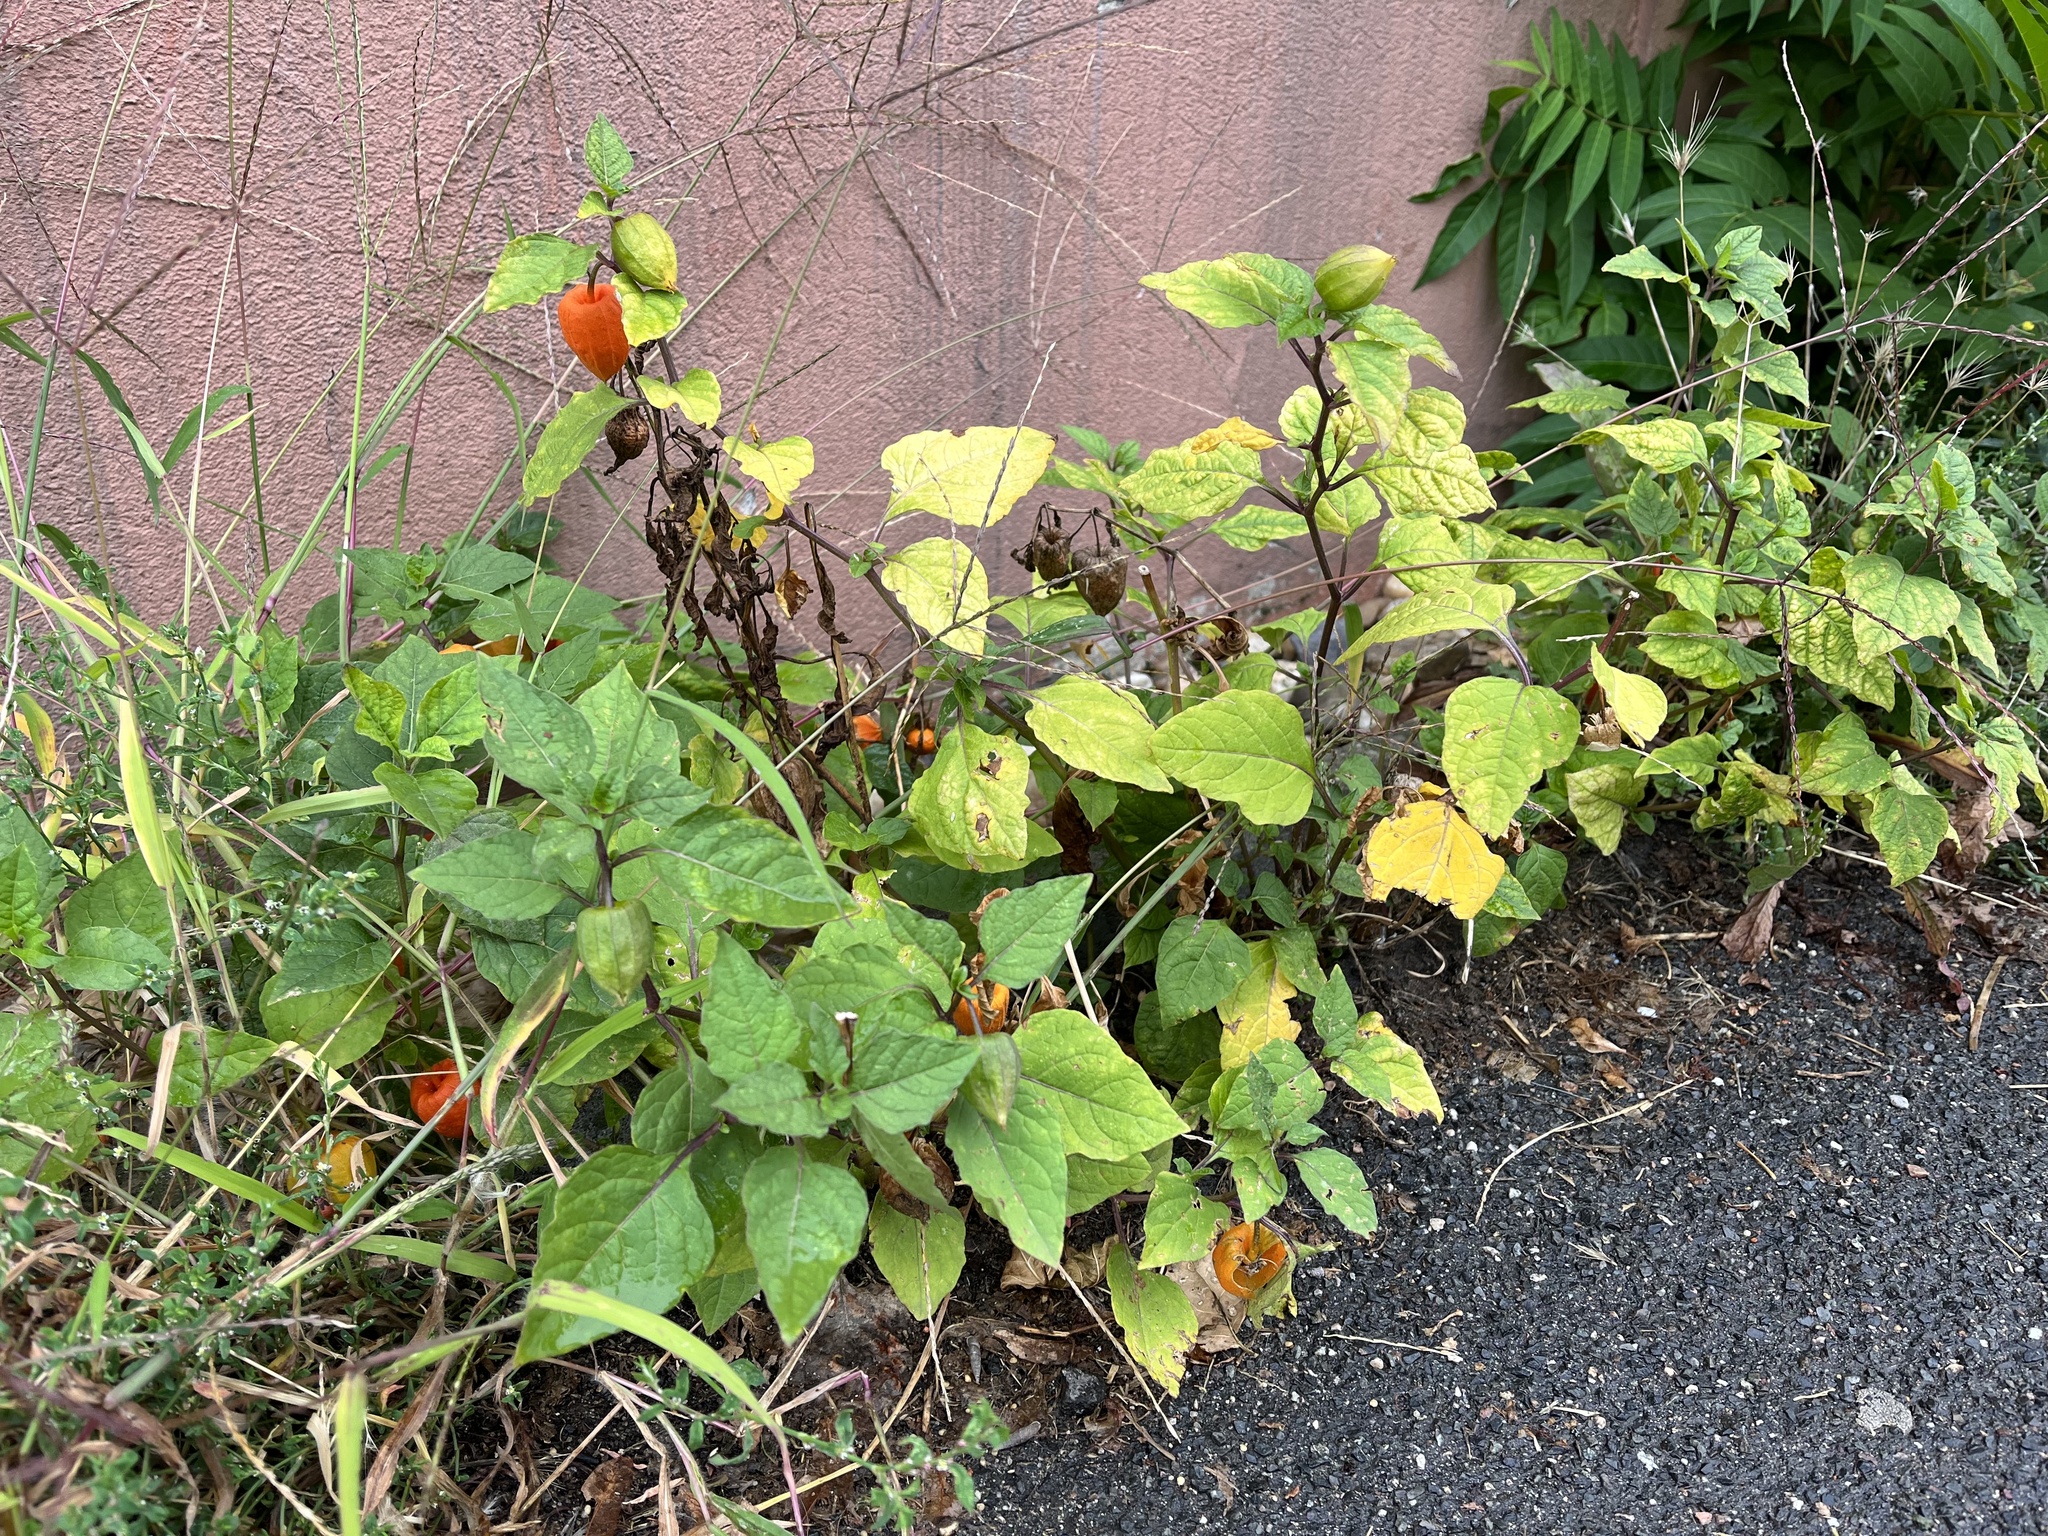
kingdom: Plantae
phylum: Tracheophyta
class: Magnoliopsida
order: Solanales
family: Solanaceae
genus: Alkekengi
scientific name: Alkekengi officinarum
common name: Japanese-lantern
